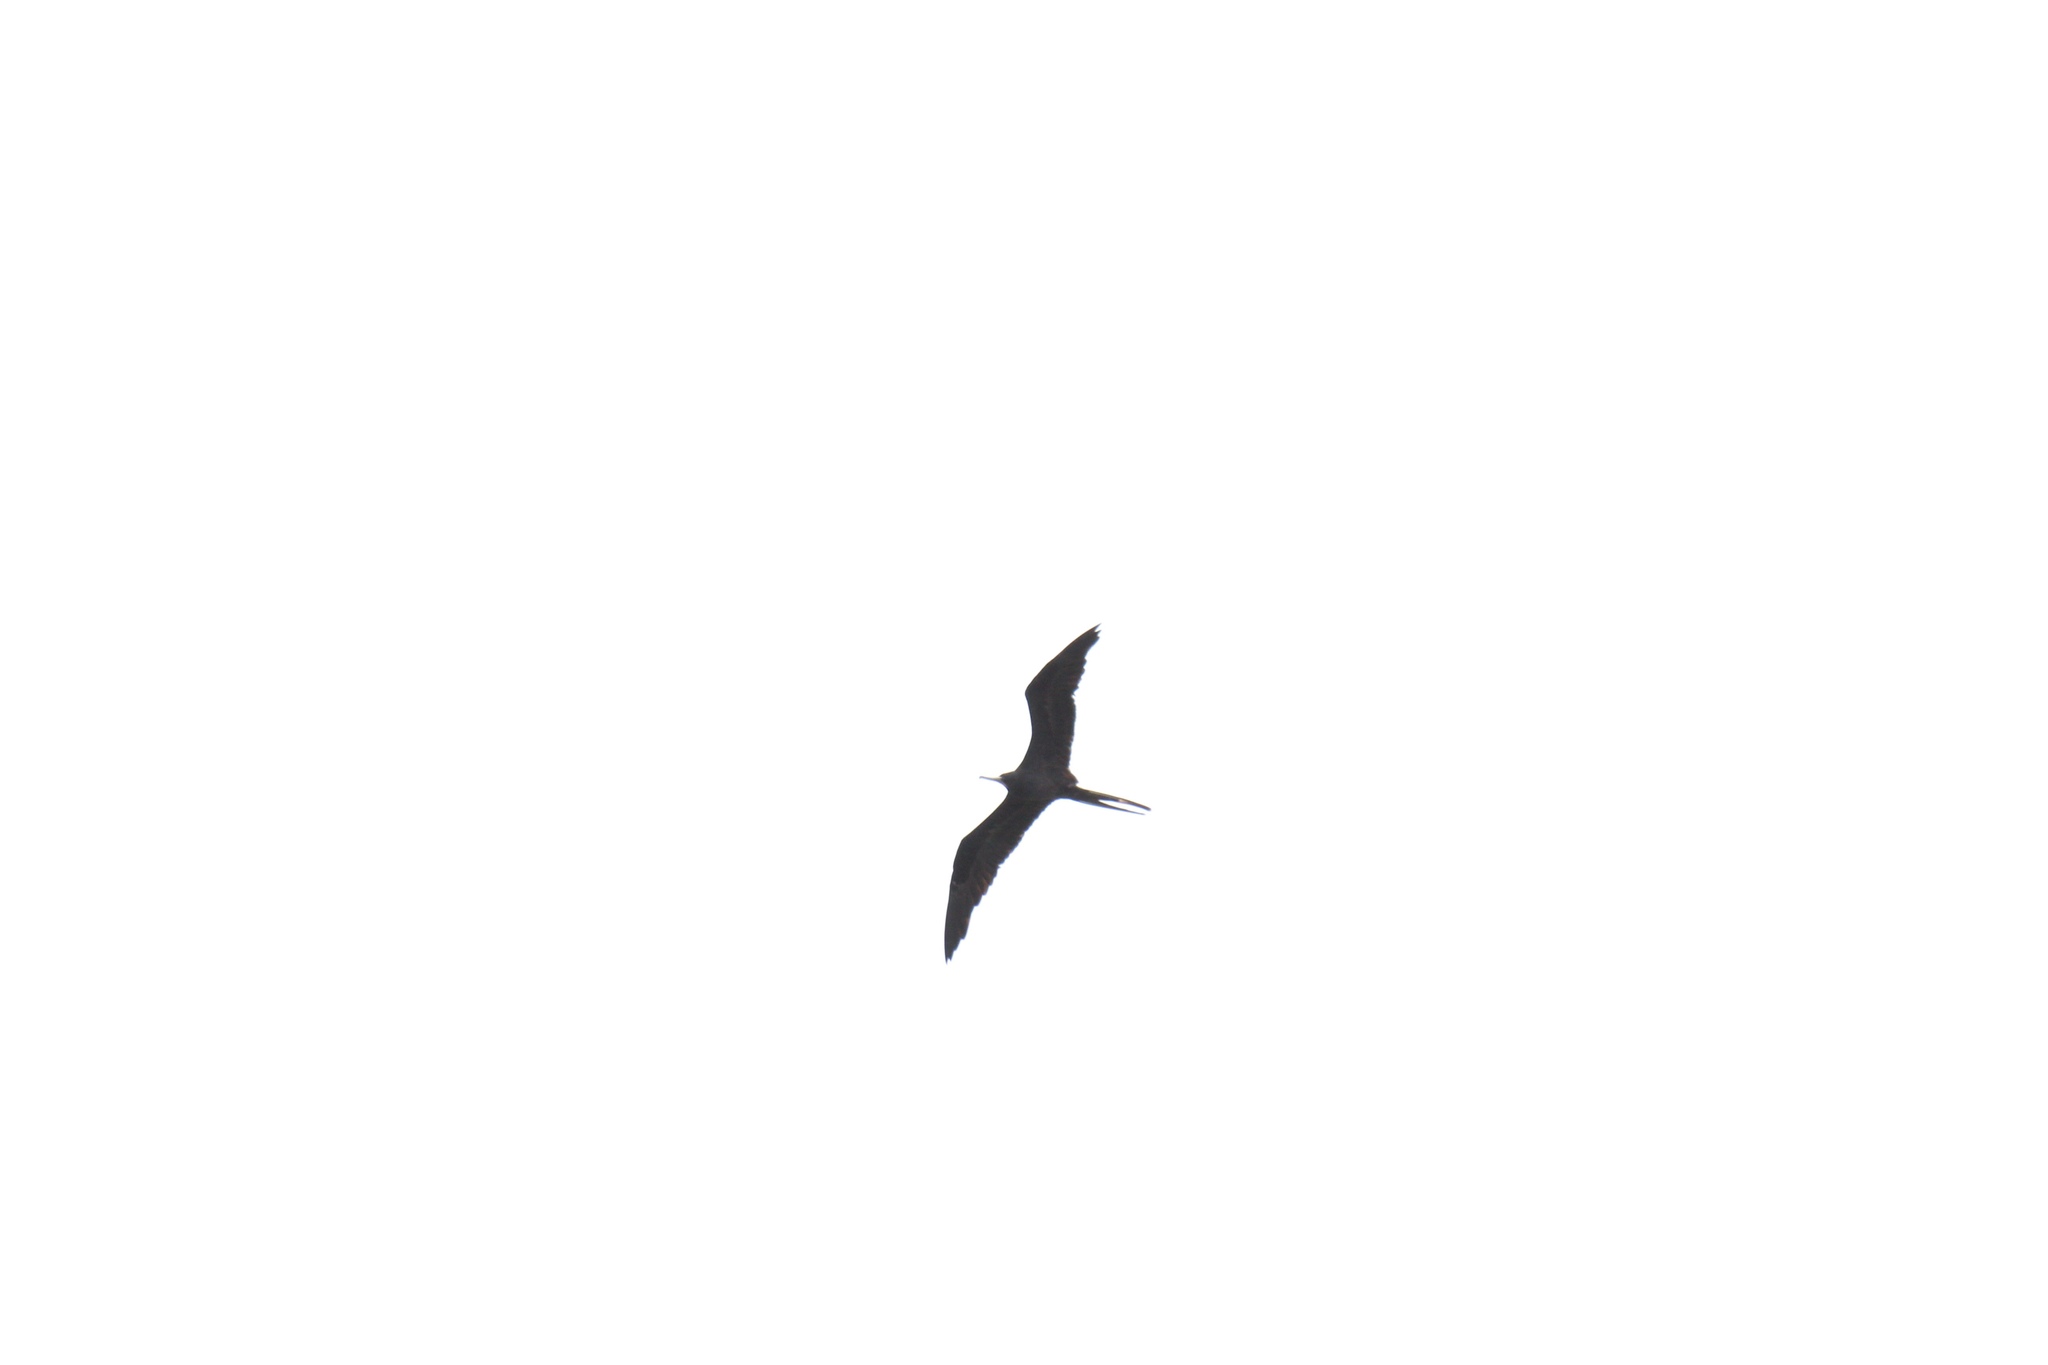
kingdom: Animalia
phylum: Chordata
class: Aves
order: Suliformes
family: Fregatidae
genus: Fregata
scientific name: Fregata magnificens
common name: Magnificent frigatebird
